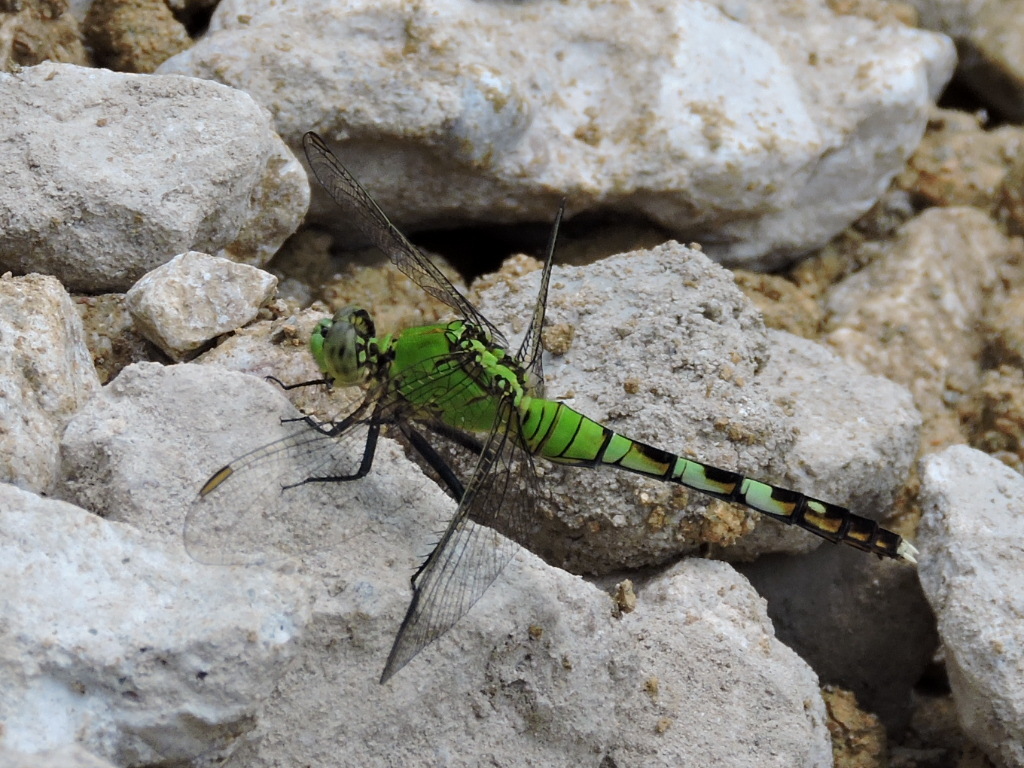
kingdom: Animalia
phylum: Arthropoda
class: Insecta
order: Odonata
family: Libellulidae
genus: Erythemis
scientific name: Erythemis simplicicollis
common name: Eastern pondhawk
